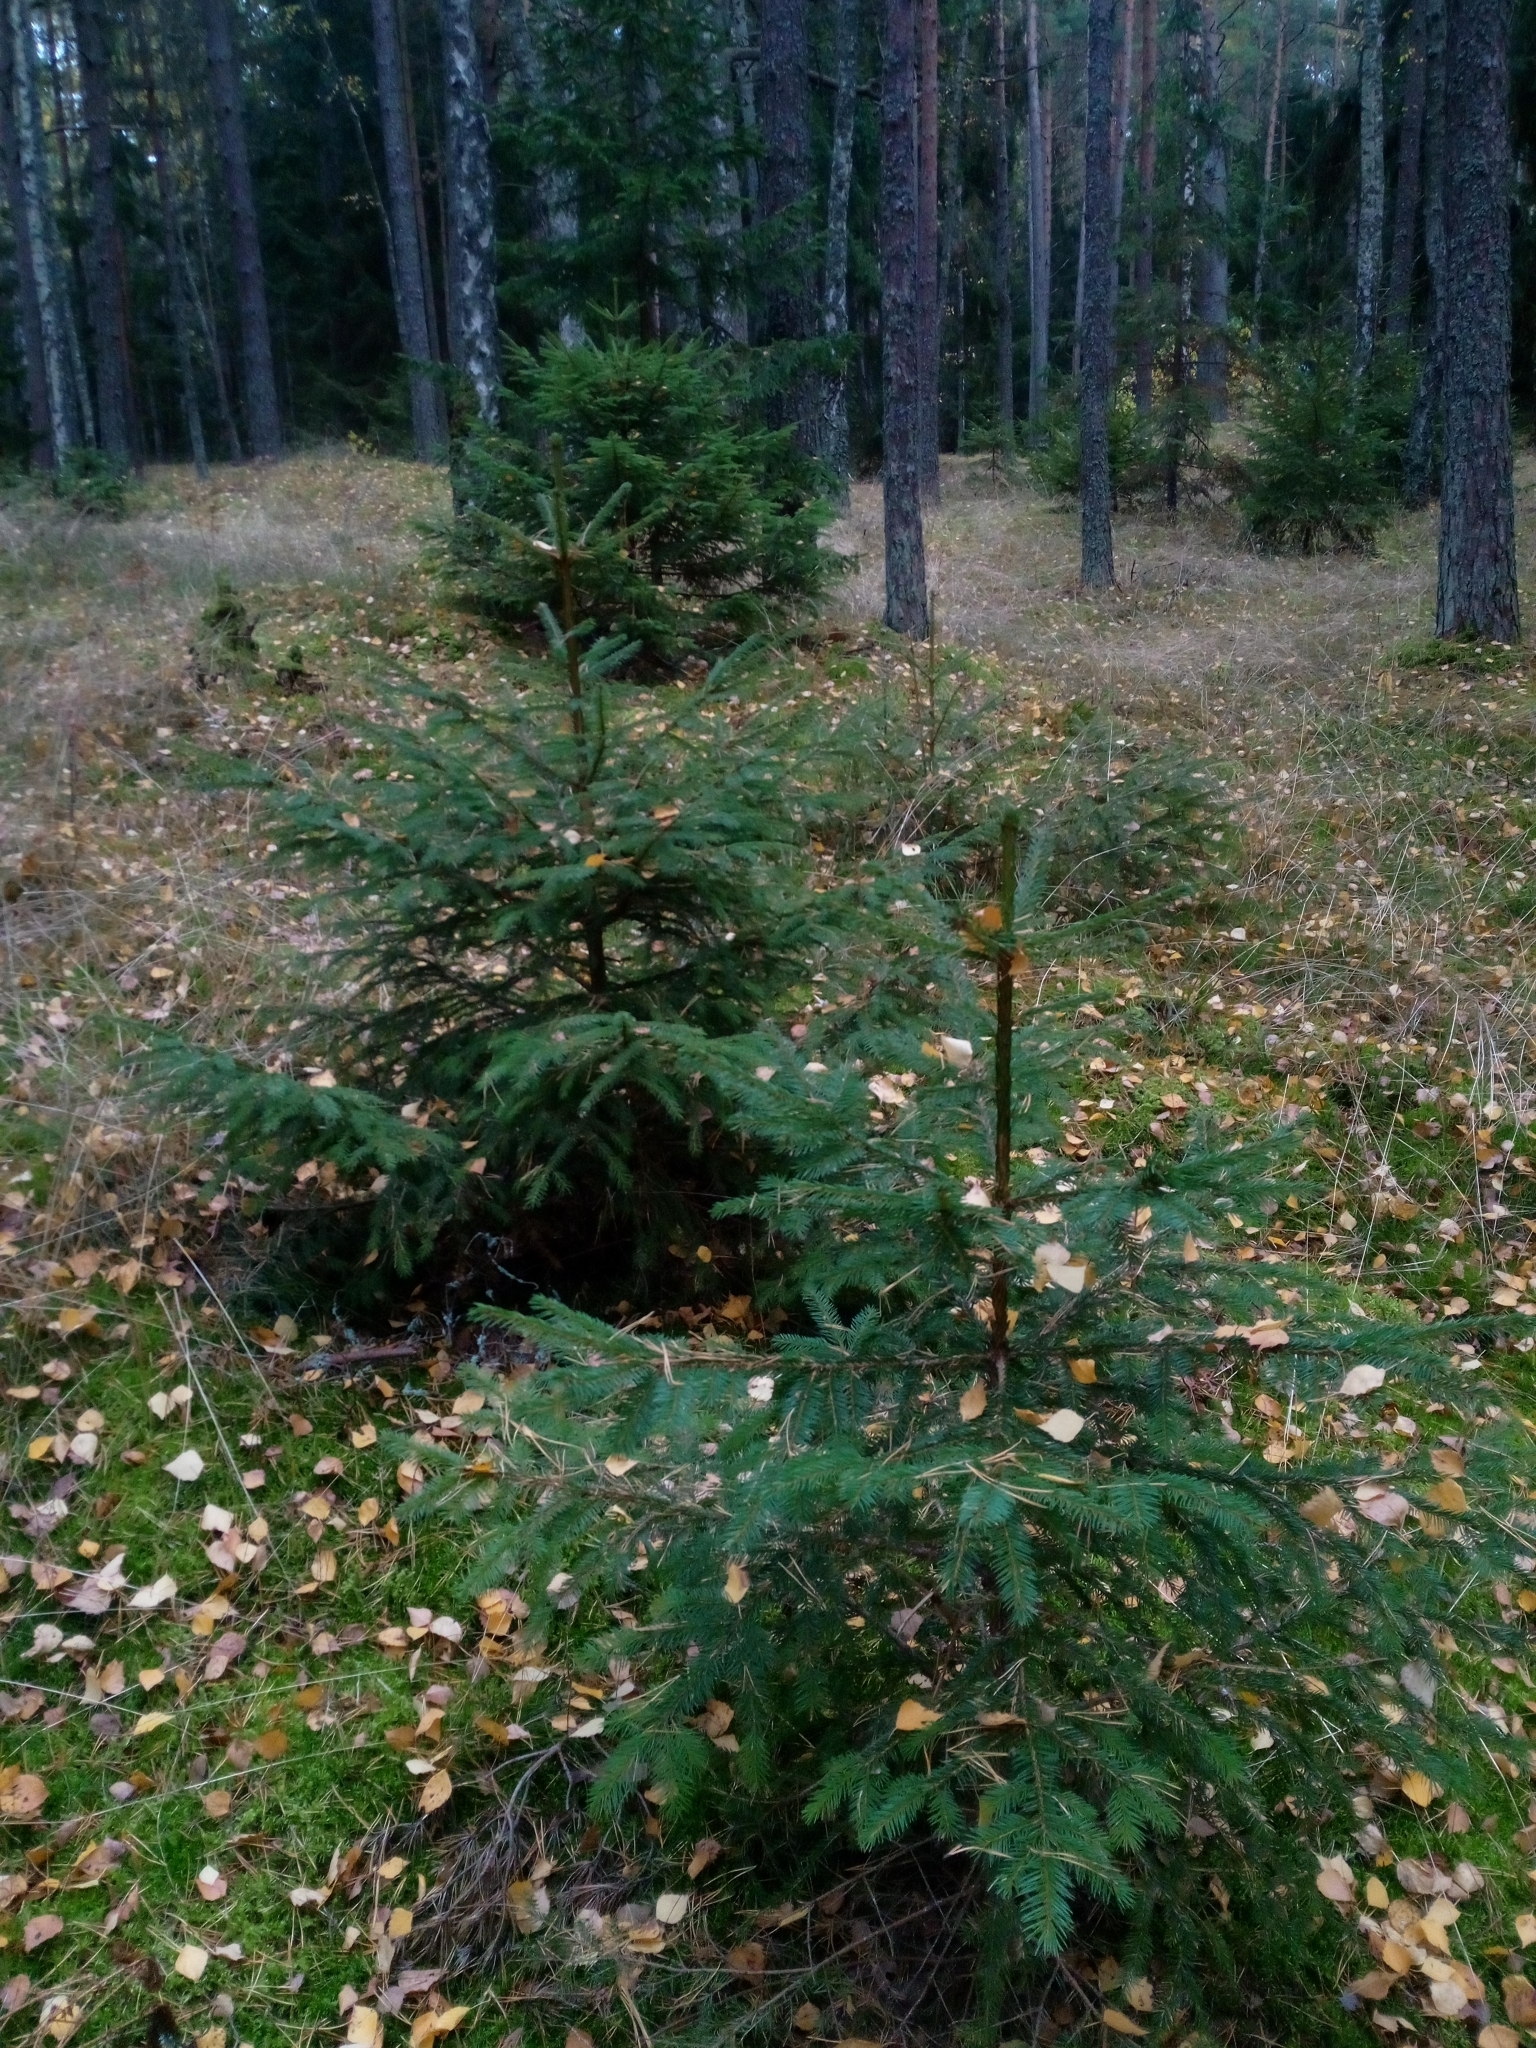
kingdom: Plantae
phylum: Tracheophyta
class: Pinopsida
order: Pinales
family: Pinaceae
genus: Picea
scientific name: Picea abies
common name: Norway spruce
